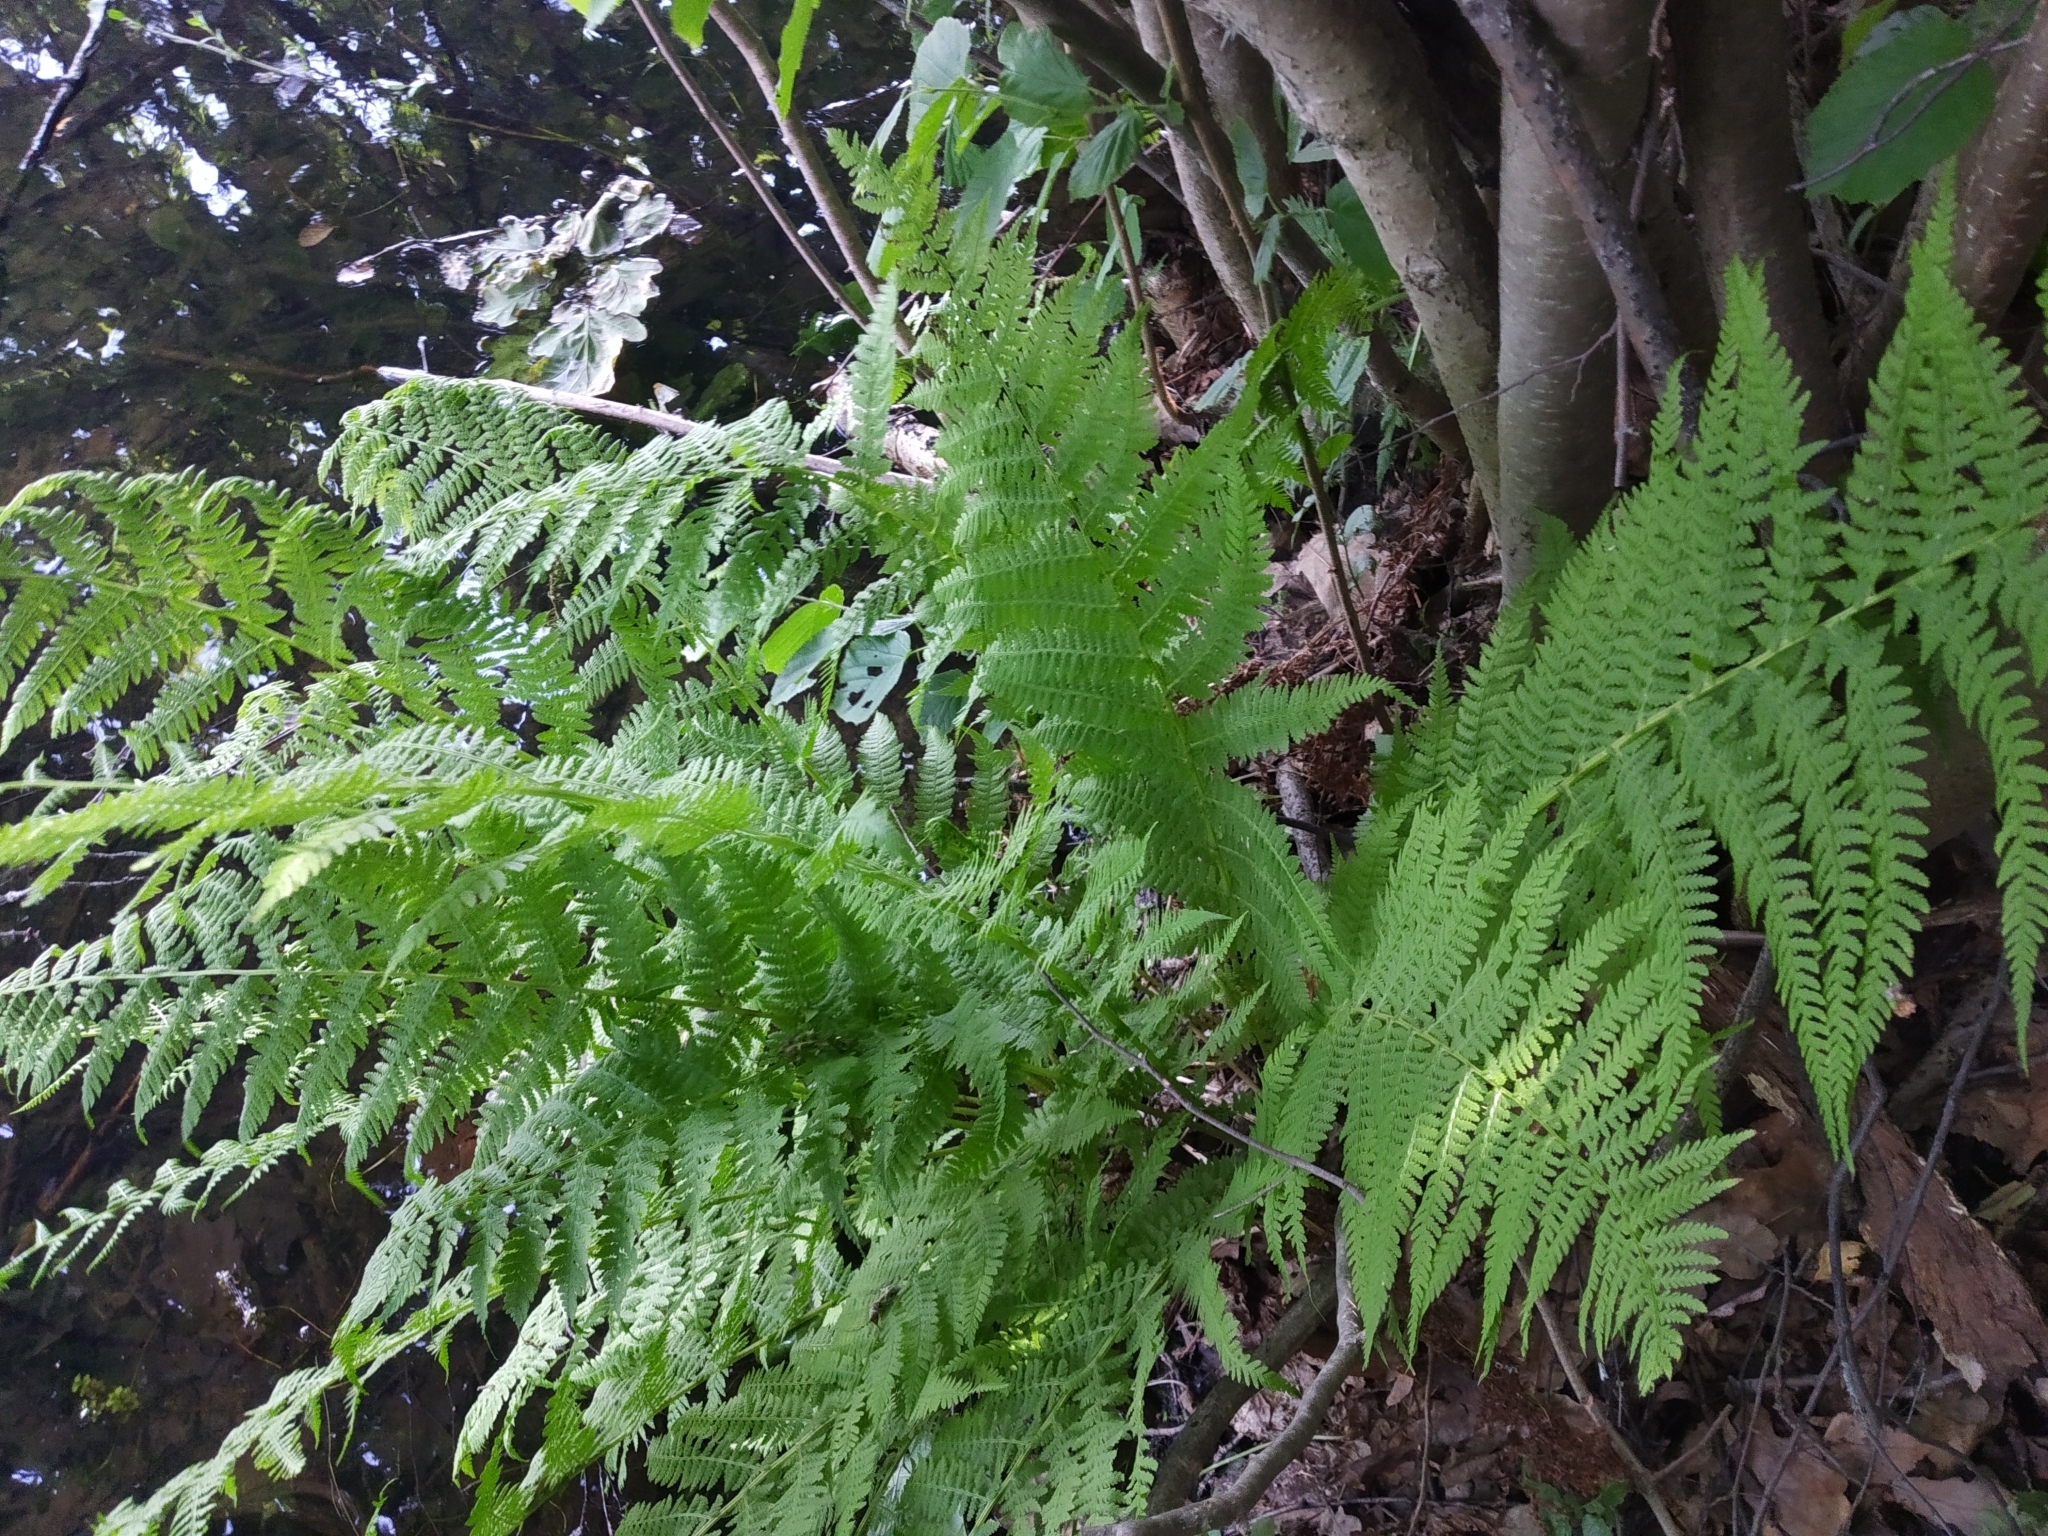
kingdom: Plantae
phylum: Tracheophyta
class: Polypodiopsida
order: Polypodiales
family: Athyriaceae
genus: Athyrium
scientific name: Athyrium filix-femina
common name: Lady fern
